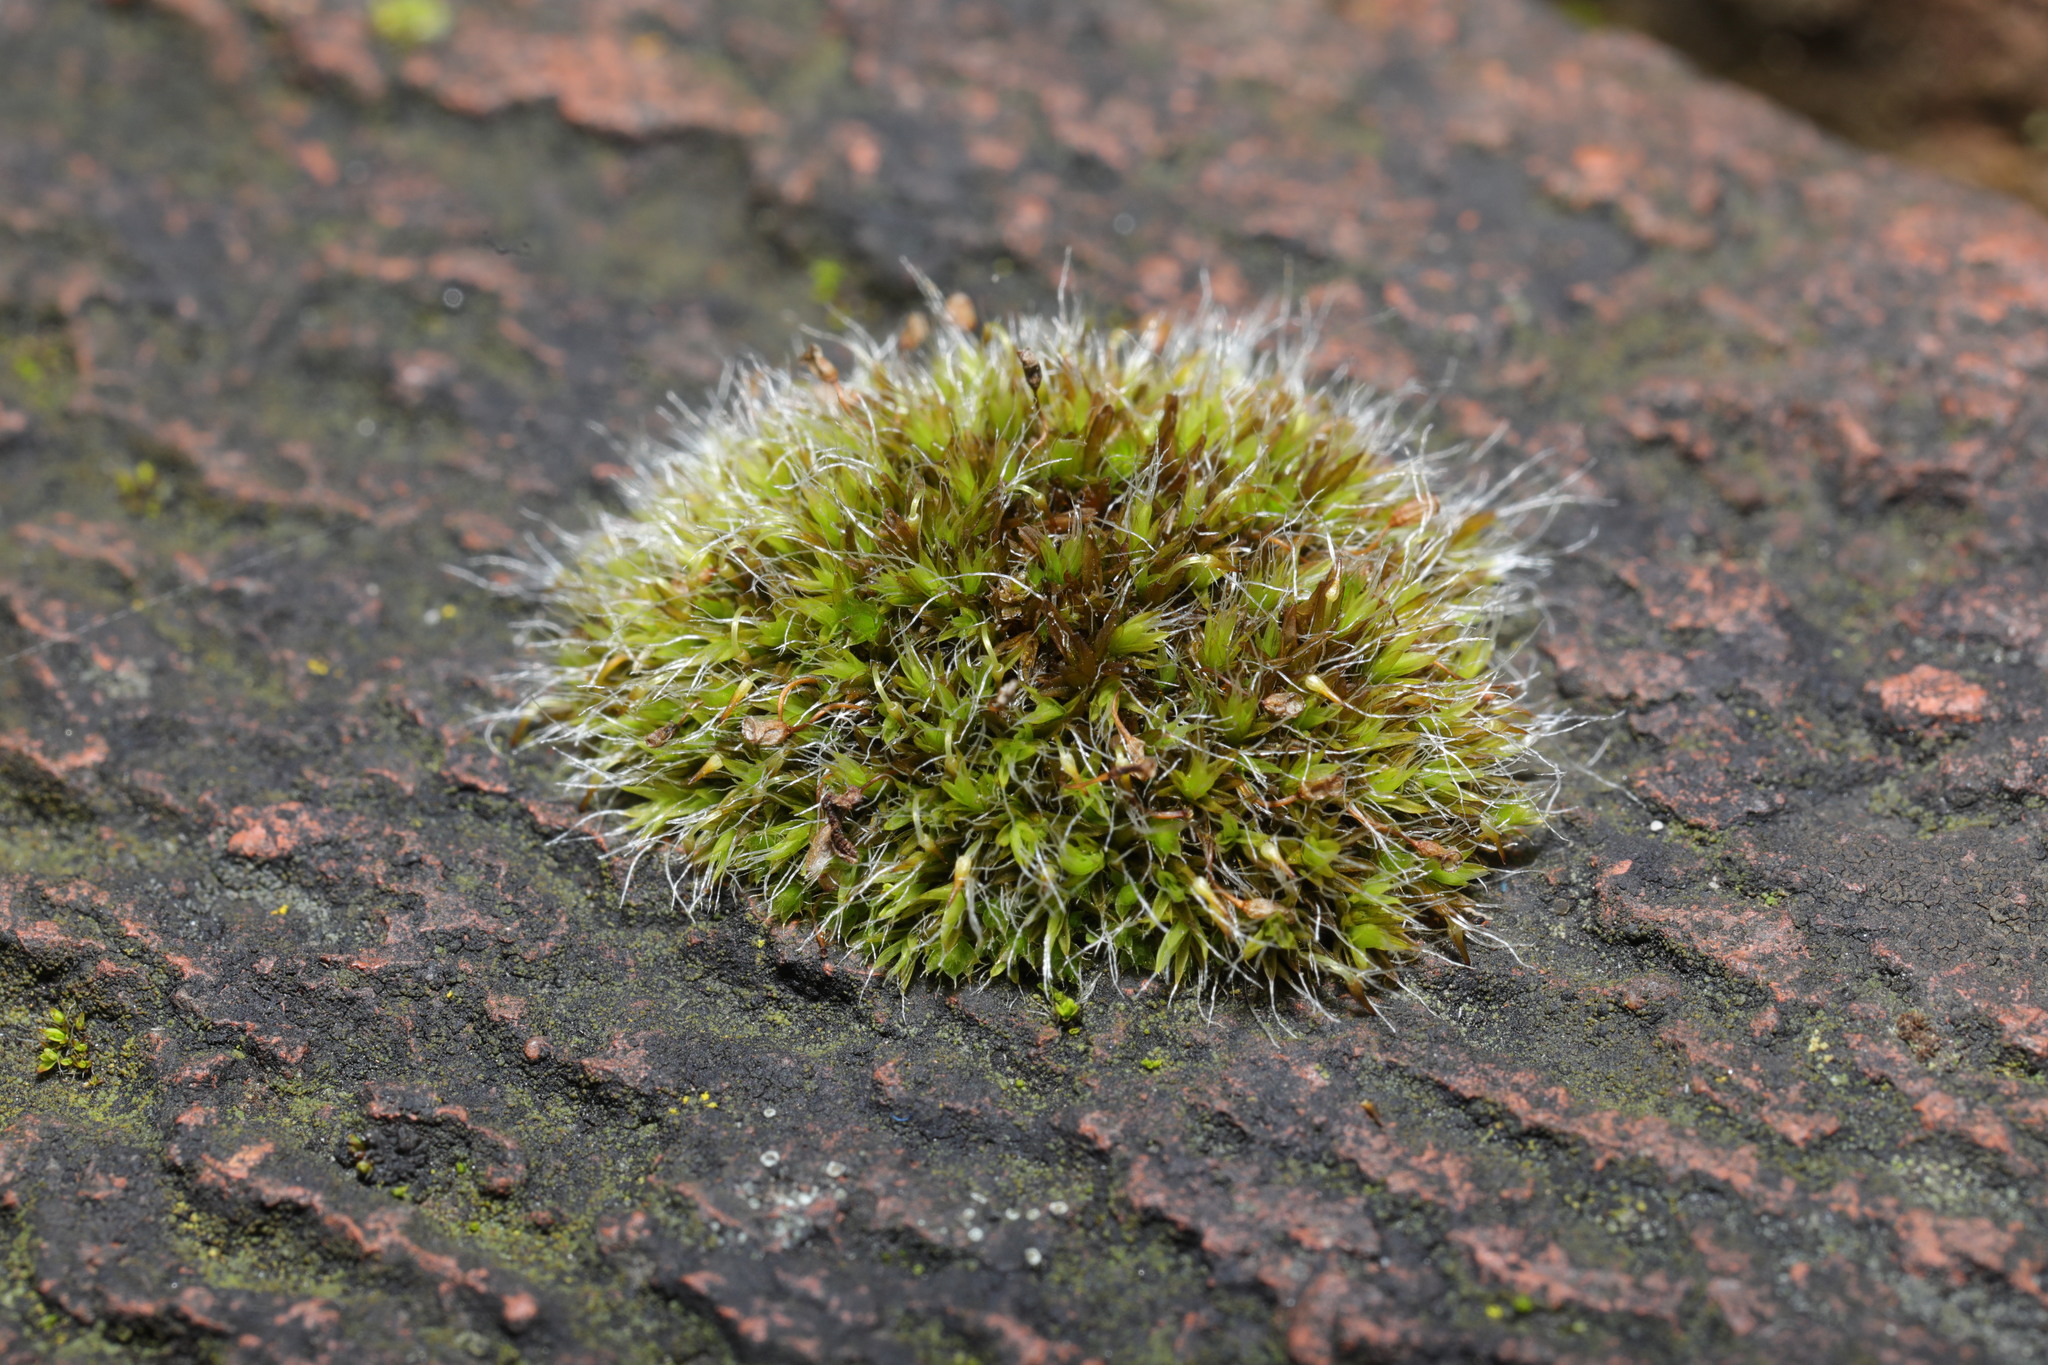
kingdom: Plantae
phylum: Bryophyta
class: Bryopsida
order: Grimmiales
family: Grimmiaceae
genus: Grimmia
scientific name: Grimmia pulvinata
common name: Grey-cushioned grimmia
